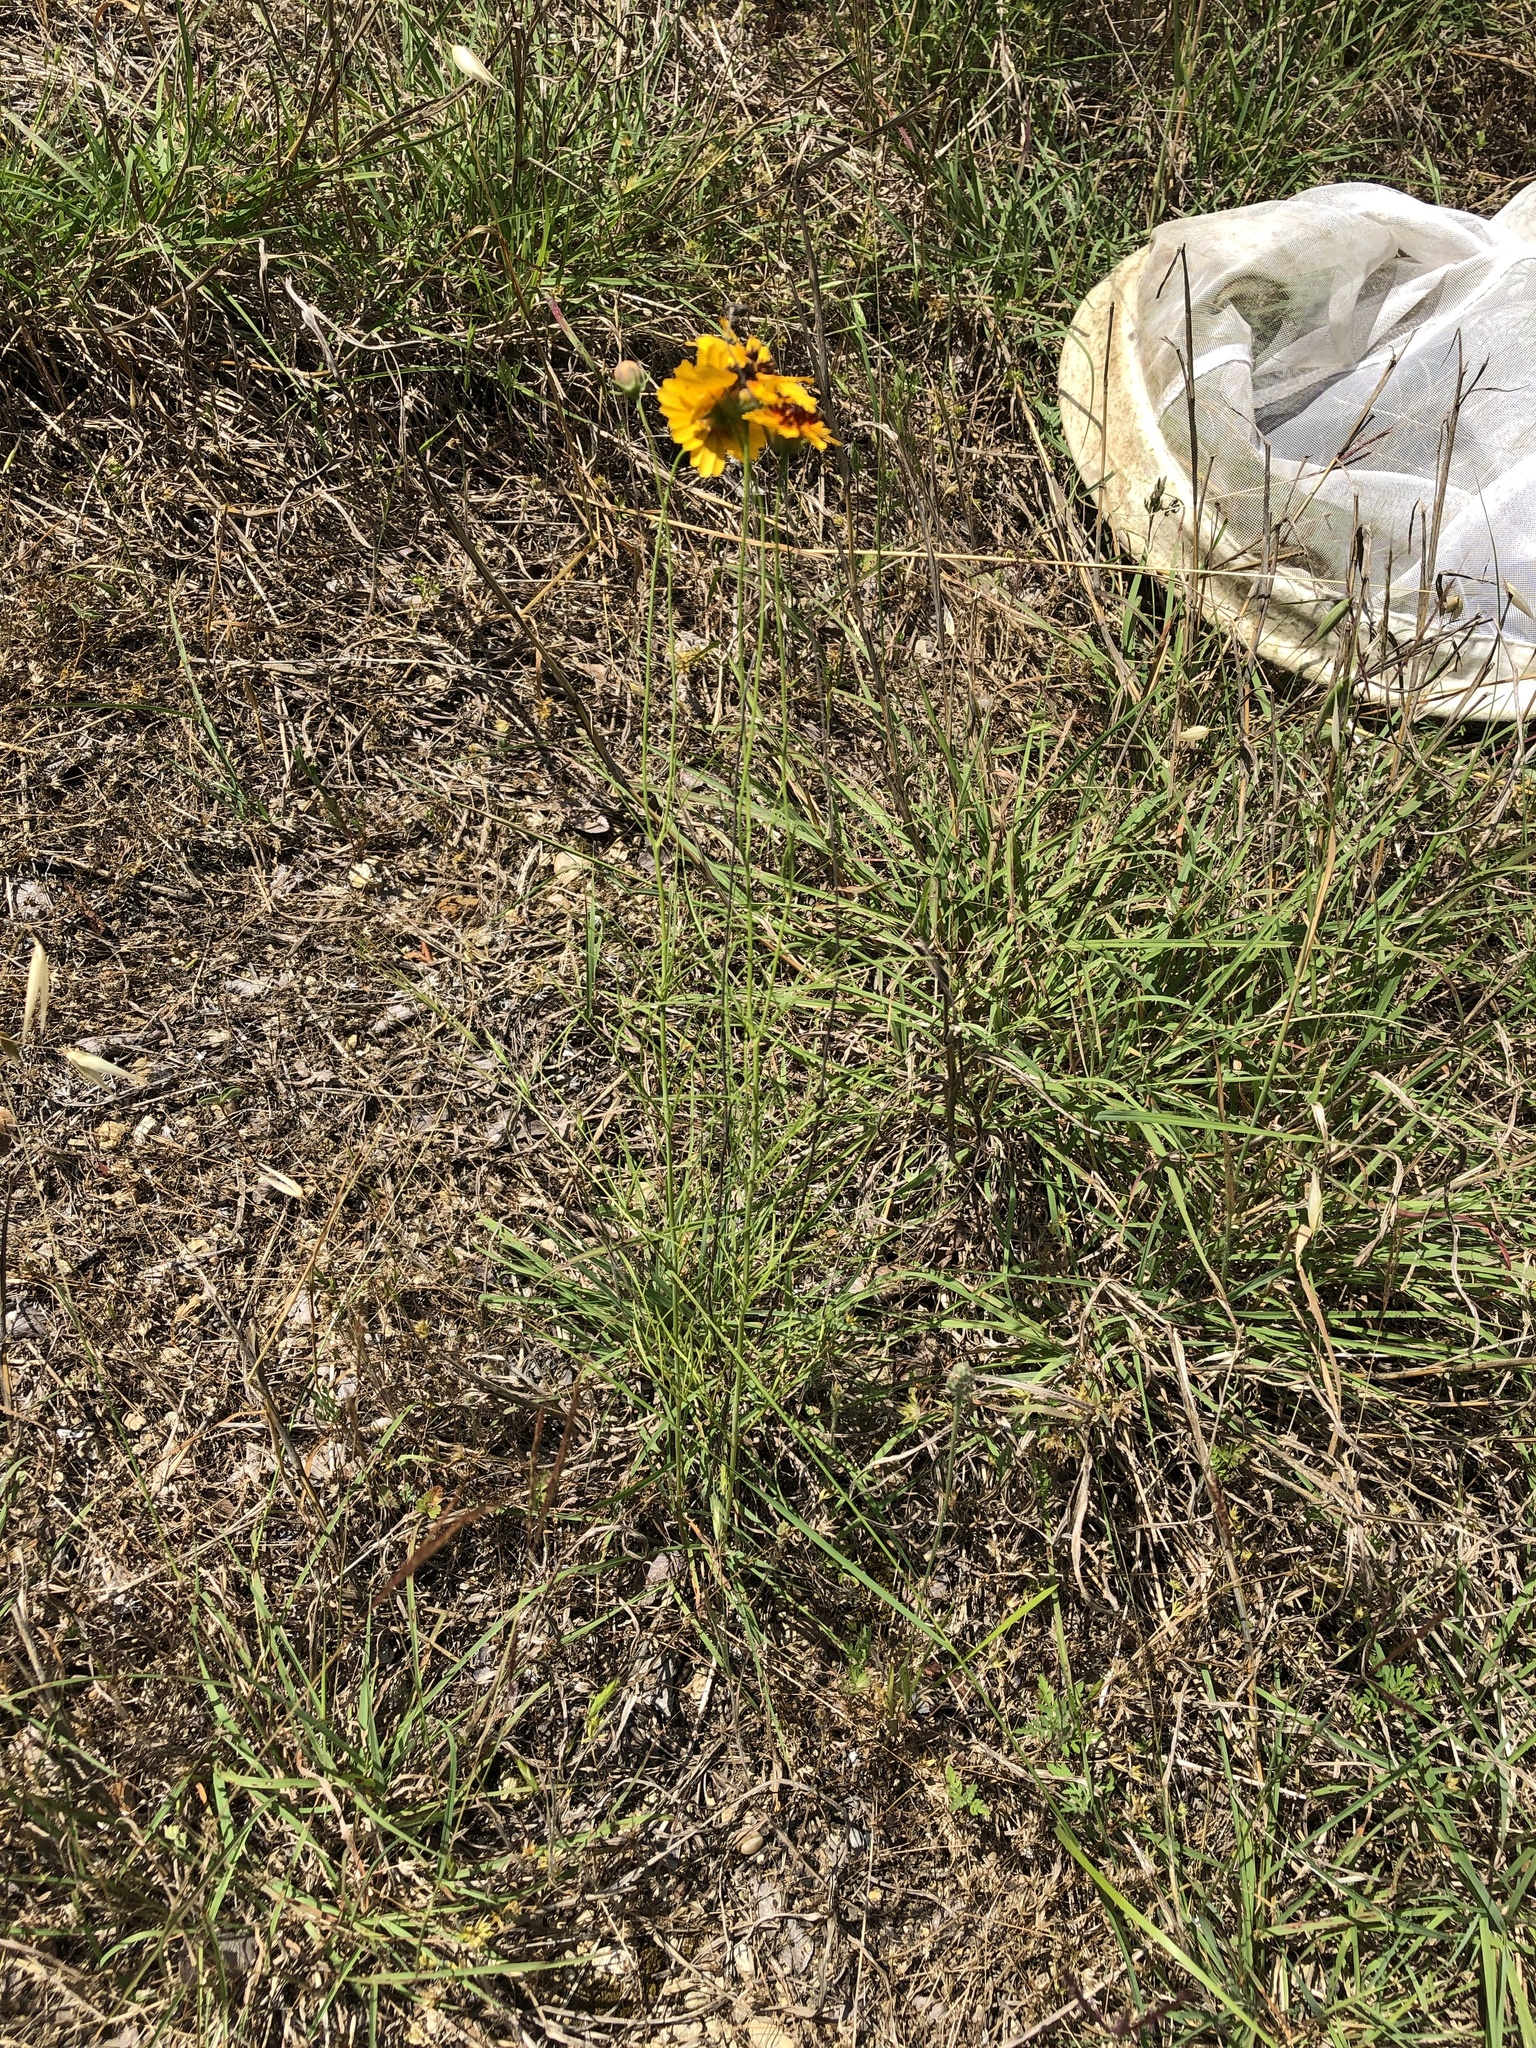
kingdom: Plantae
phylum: Tracheophyta
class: Magnoliopsida
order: Asterales
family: Asteraceae
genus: Thelesperma
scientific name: Thelesperma filifolium
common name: Stiff greenthread
